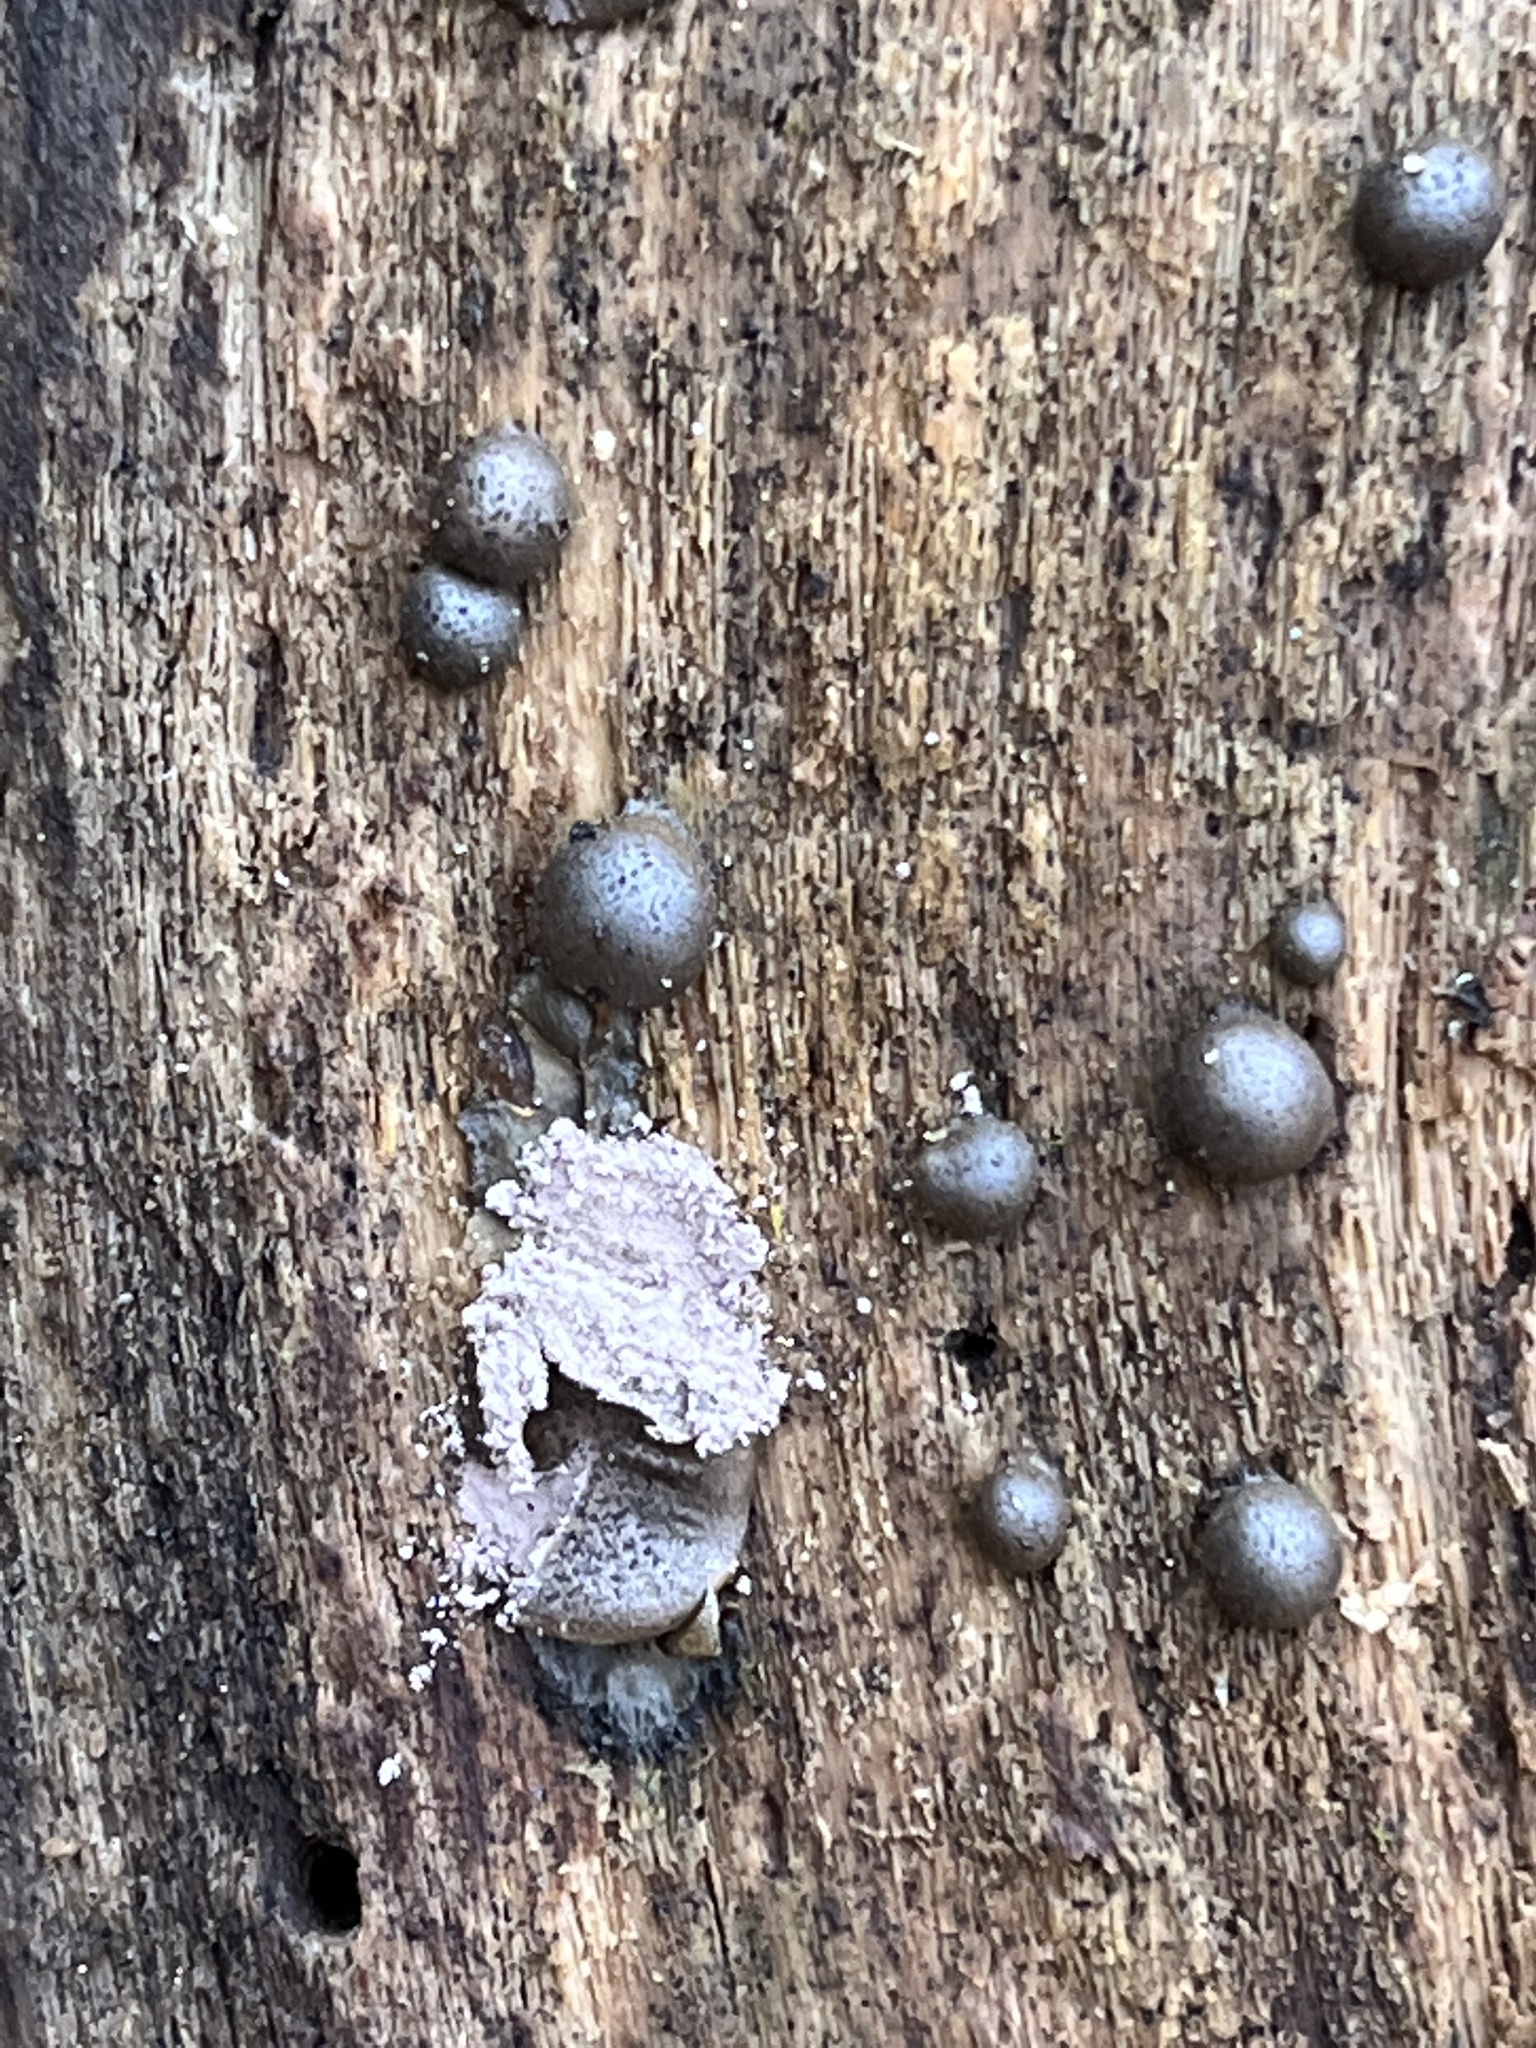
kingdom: Protozoa
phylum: Mycetozoa
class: Myxomycetes
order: Cribrariales
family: Tubiferaceae
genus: Lycogala
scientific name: Lycogala epidendrum
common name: Wolf's milk
